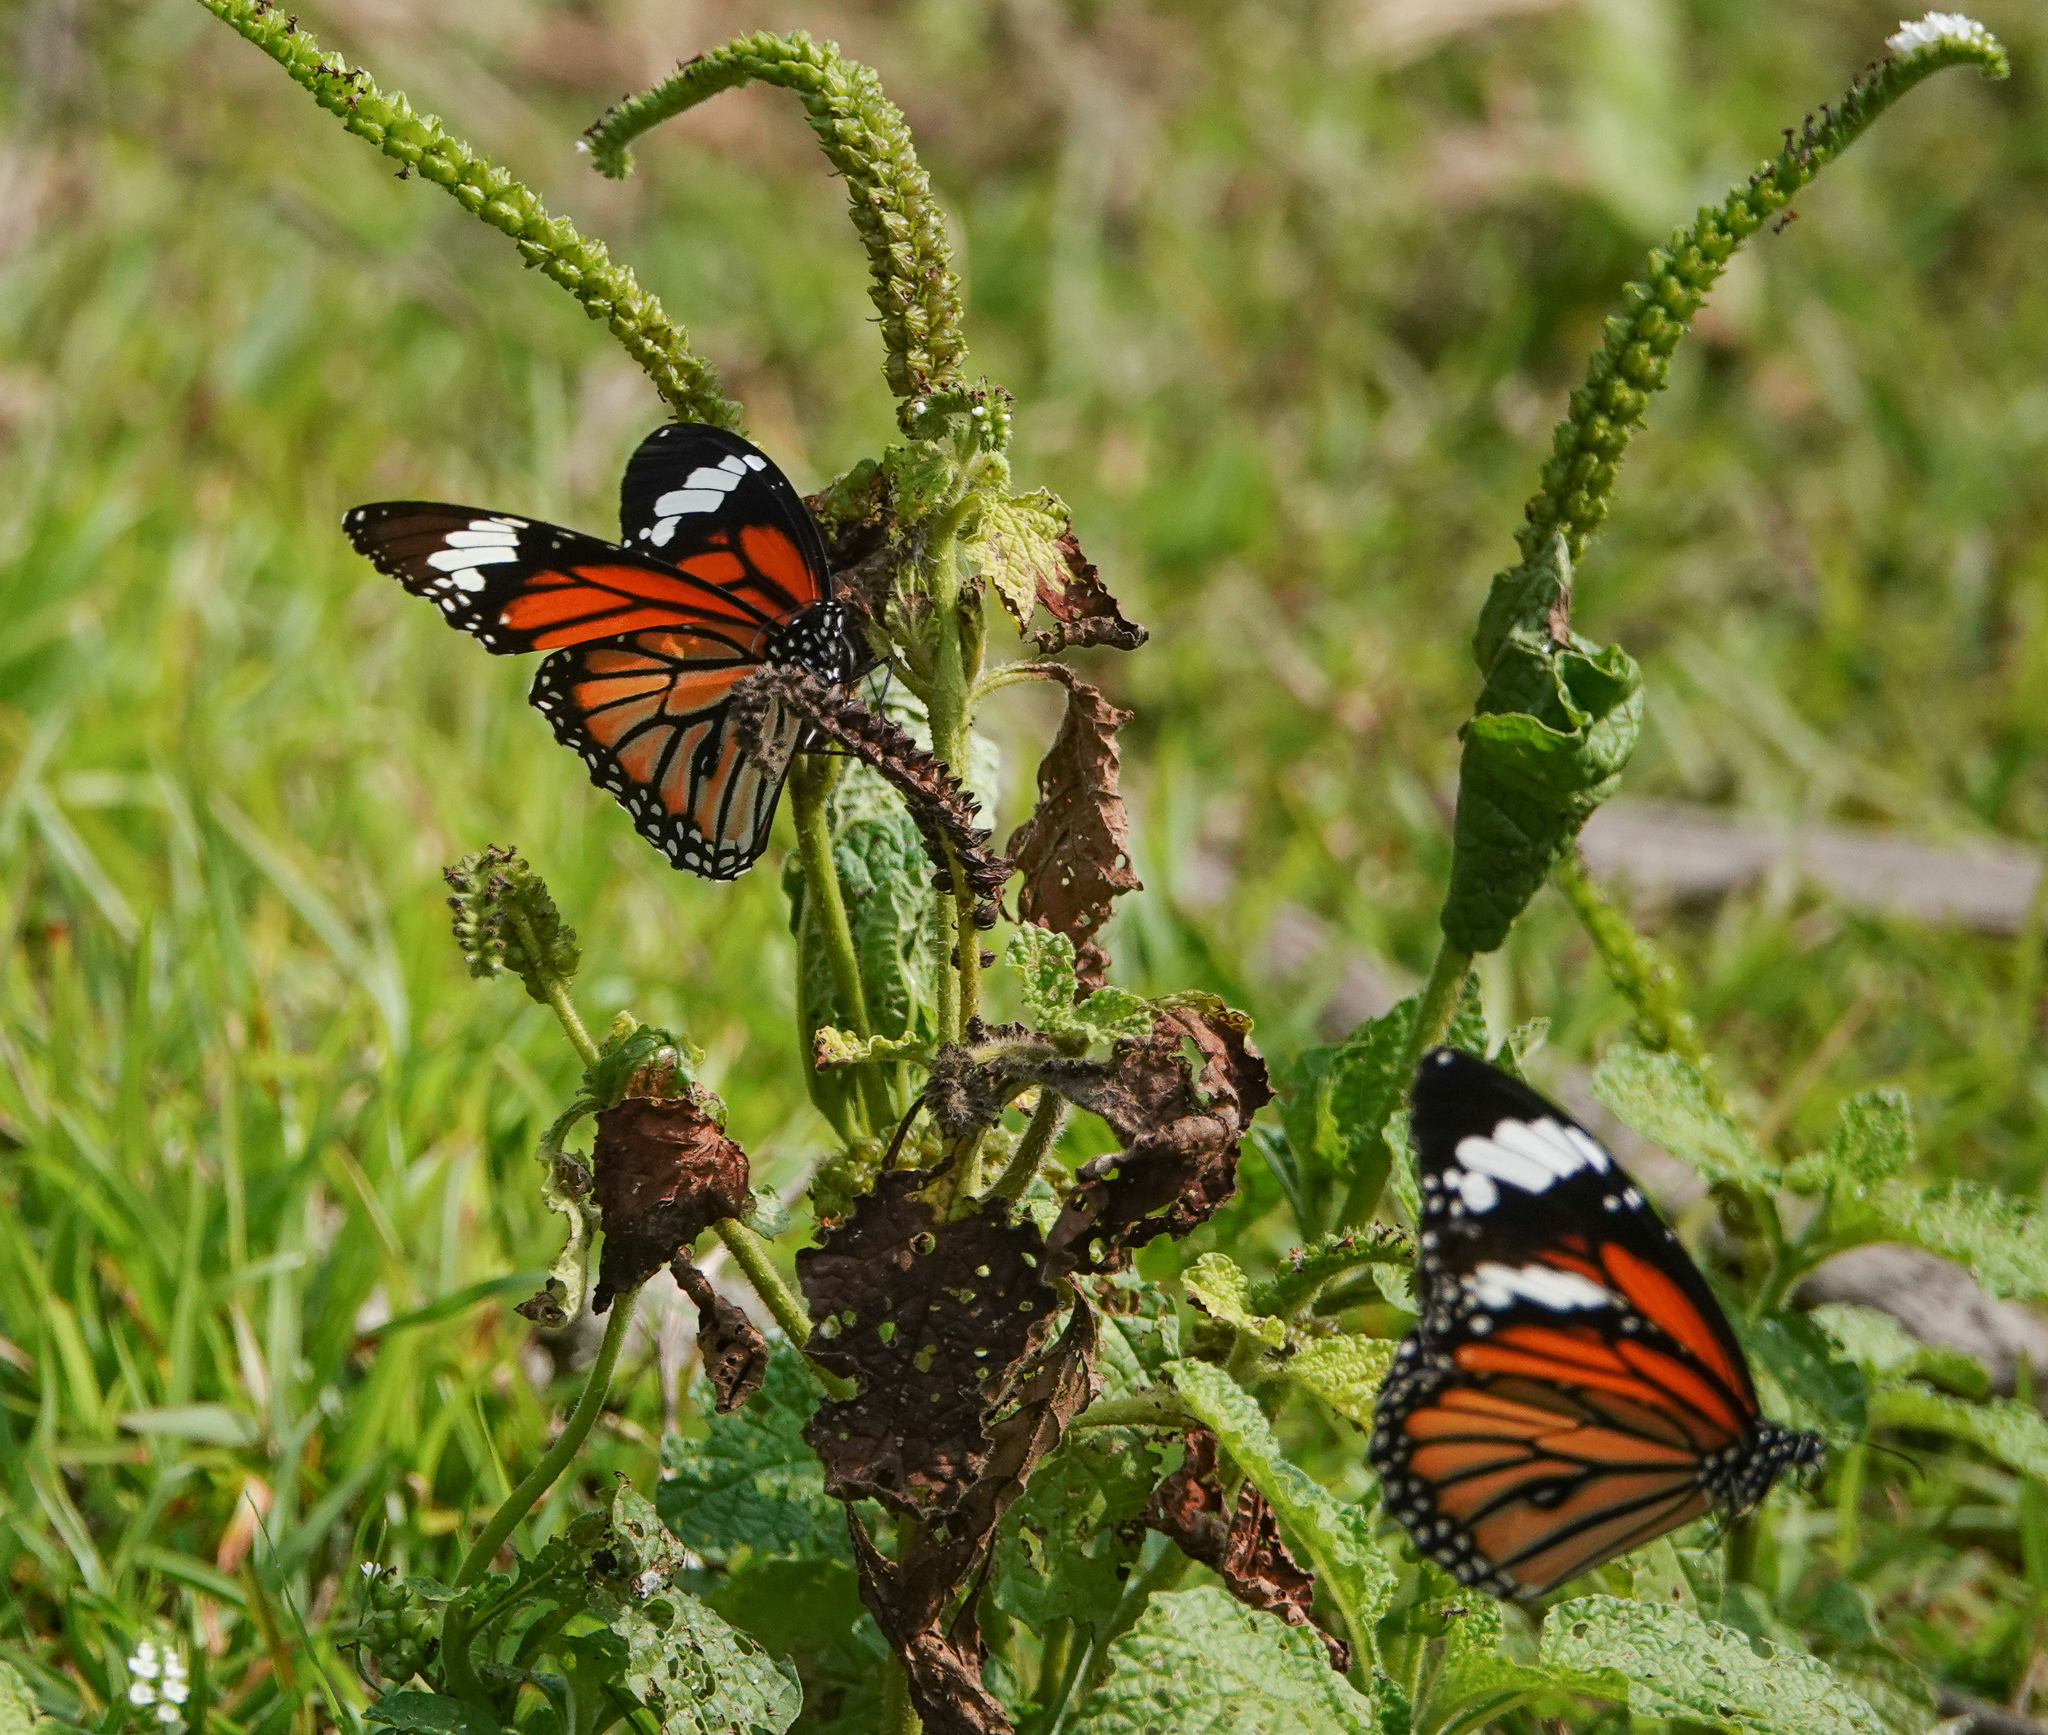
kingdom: Animalia
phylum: Arthropoda
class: Insecta
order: Lepidoptera
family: Nymphalidae
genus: Danaus
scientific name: Danaus genutia
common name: Common tiger butterfly
